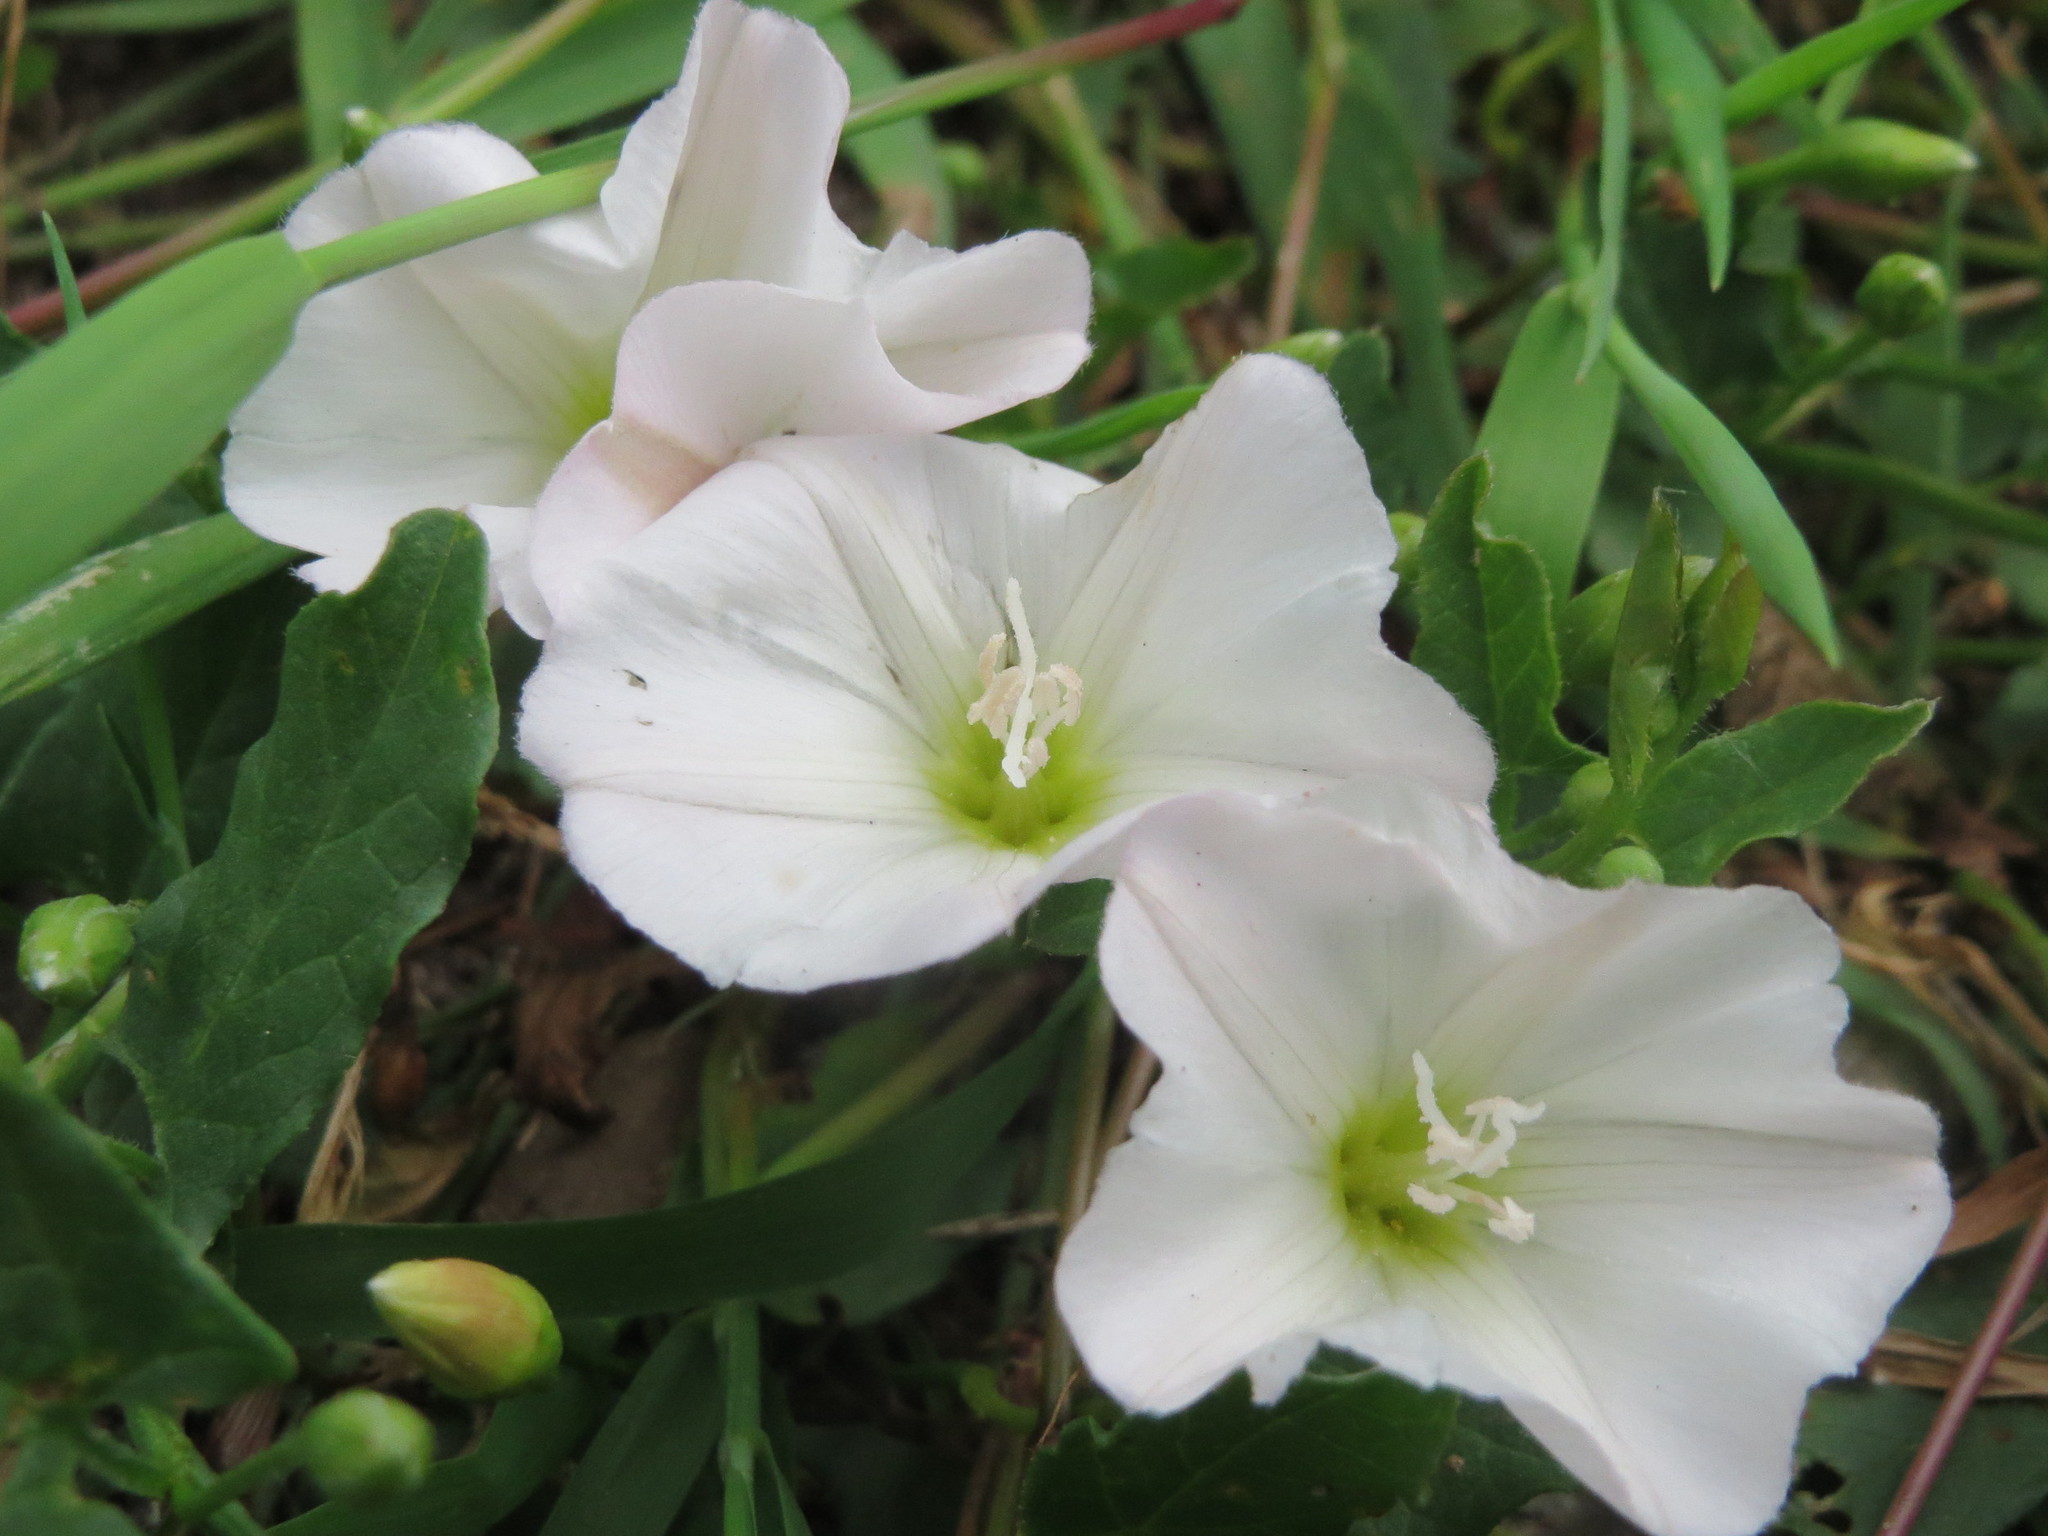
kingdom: Plantae
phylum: Tracheophyta
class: Magnoliopsida
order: Solanales
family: Convolvulaceae
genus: Convolvulus
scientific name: Convolvulus arvensis
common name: Field bindweed
